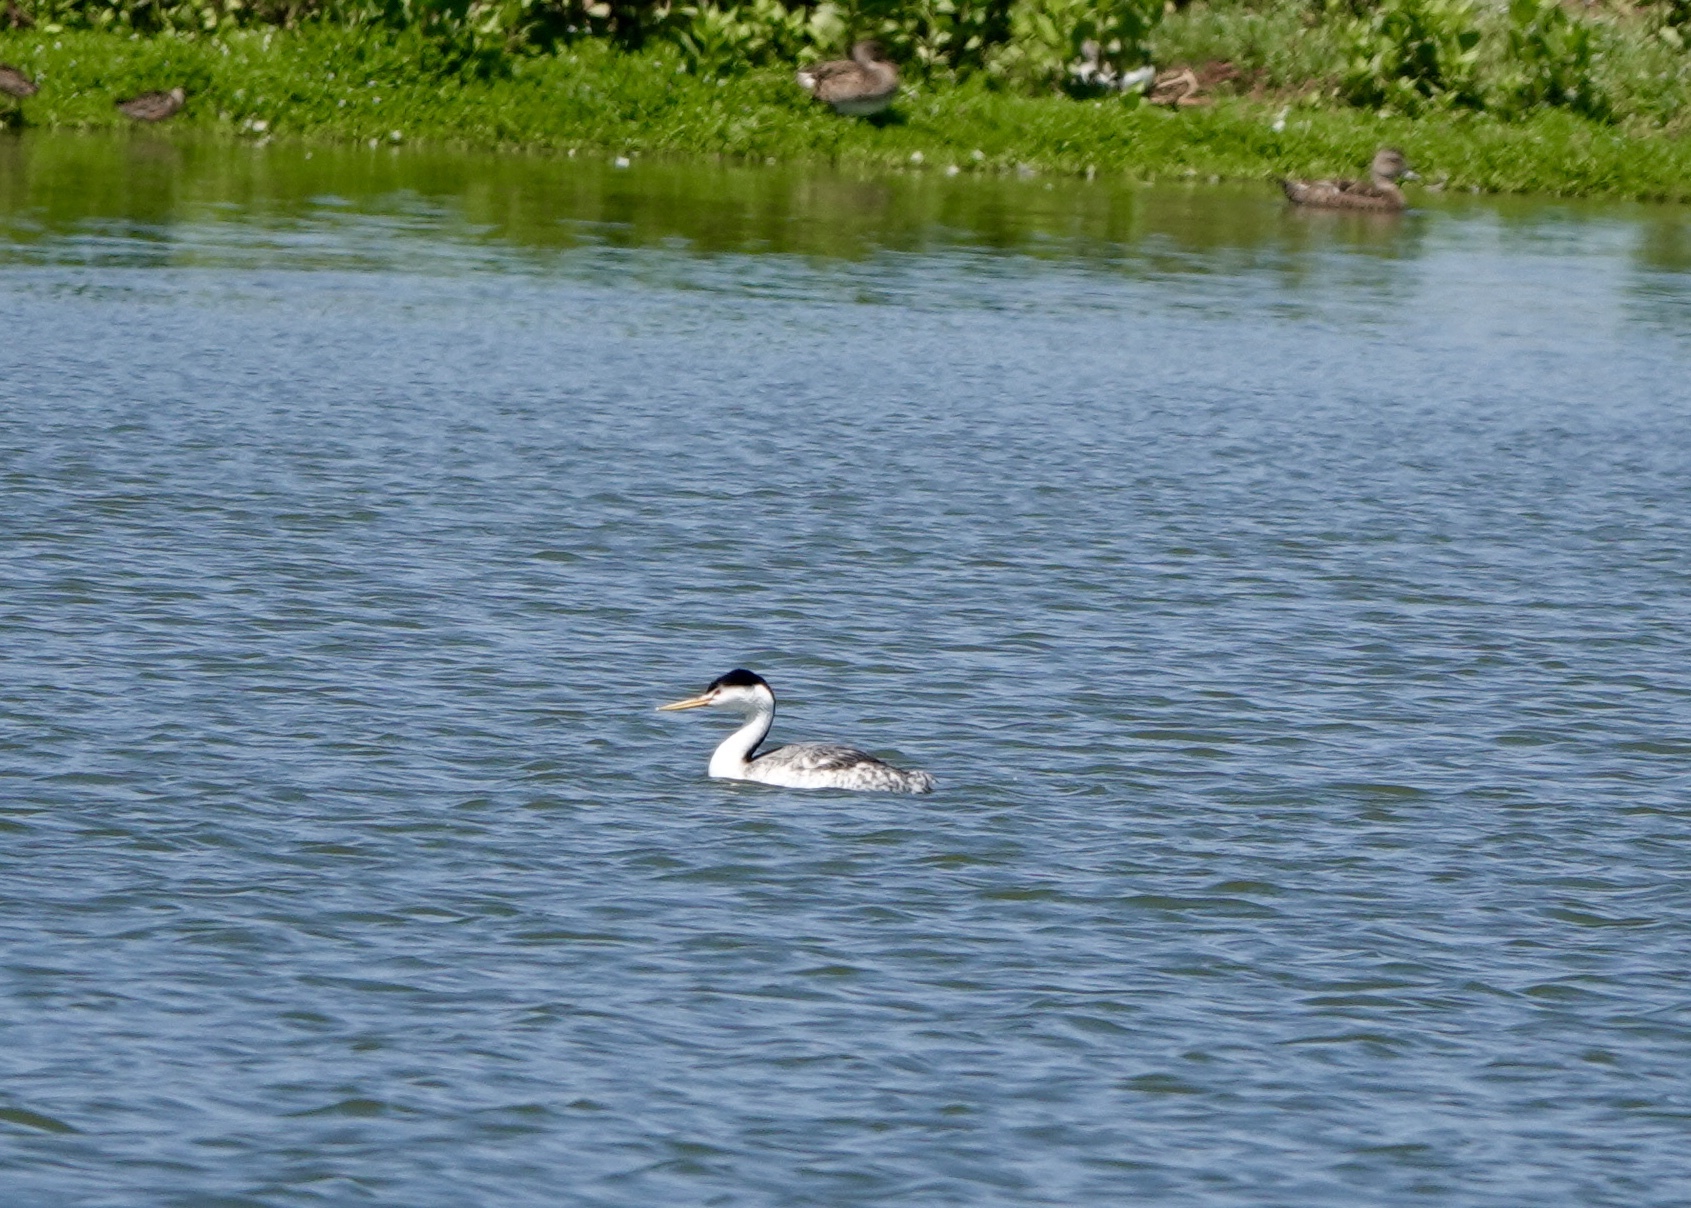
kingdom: Animalia
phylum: Chordata
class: Aves
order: Podicipediformes
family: Podicipedidae
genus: Aechmophorus
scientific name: Aechmophorus clarkii
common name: Clark's grebe
